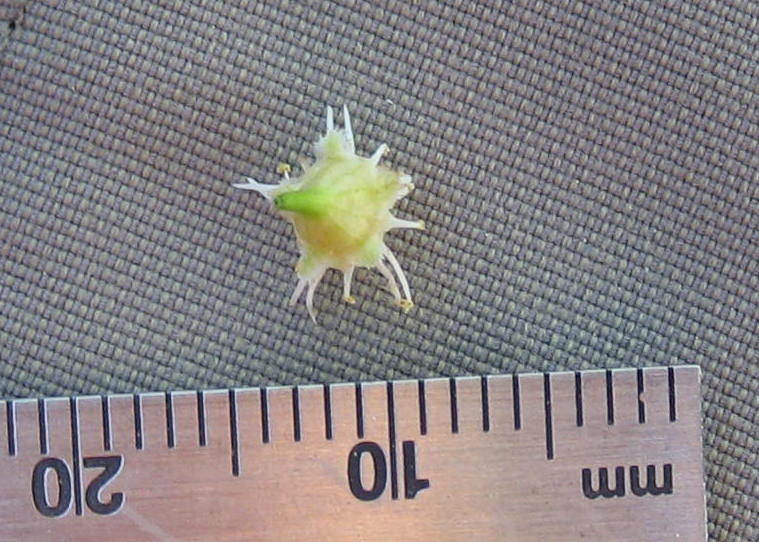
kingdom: Plantae
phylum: Tracheophyta
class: Magnoliopsida
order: Rosales
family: Rosaceae
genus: Prunus
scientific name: Prunus virginiana
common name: Chokecherry
